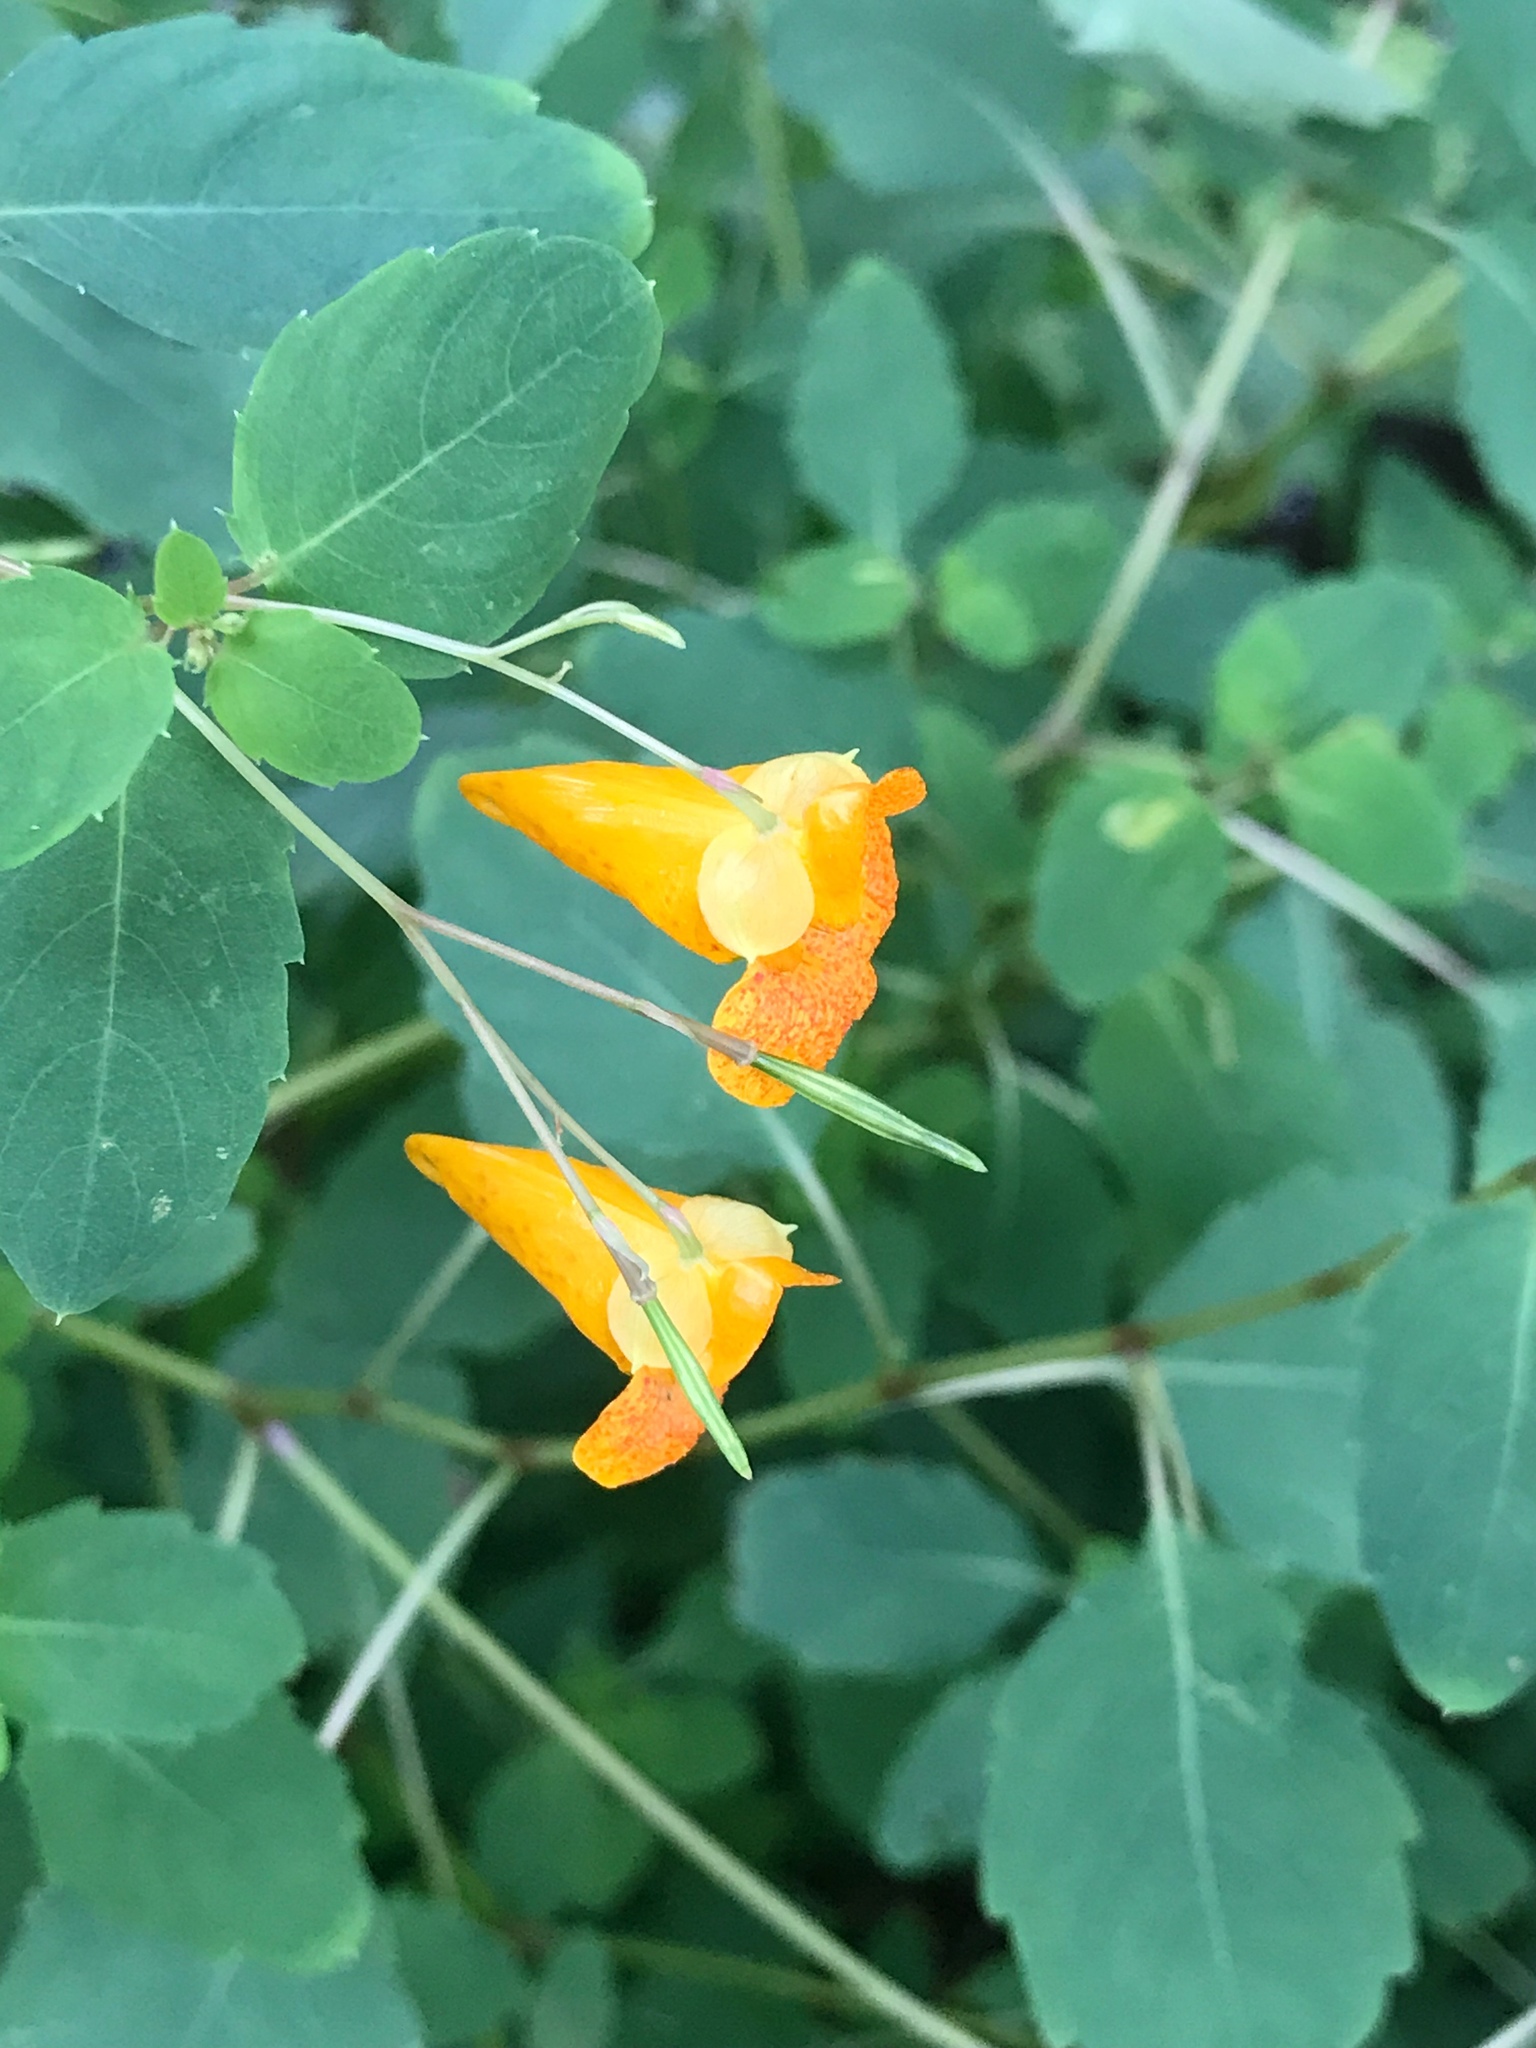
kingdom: Plantae
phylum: Tracheophyta
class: Magnoliopsida
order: Ericales
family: Balsaminaceae
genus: Impatiens
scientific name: Impatiens capensis
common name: Orange balsam
